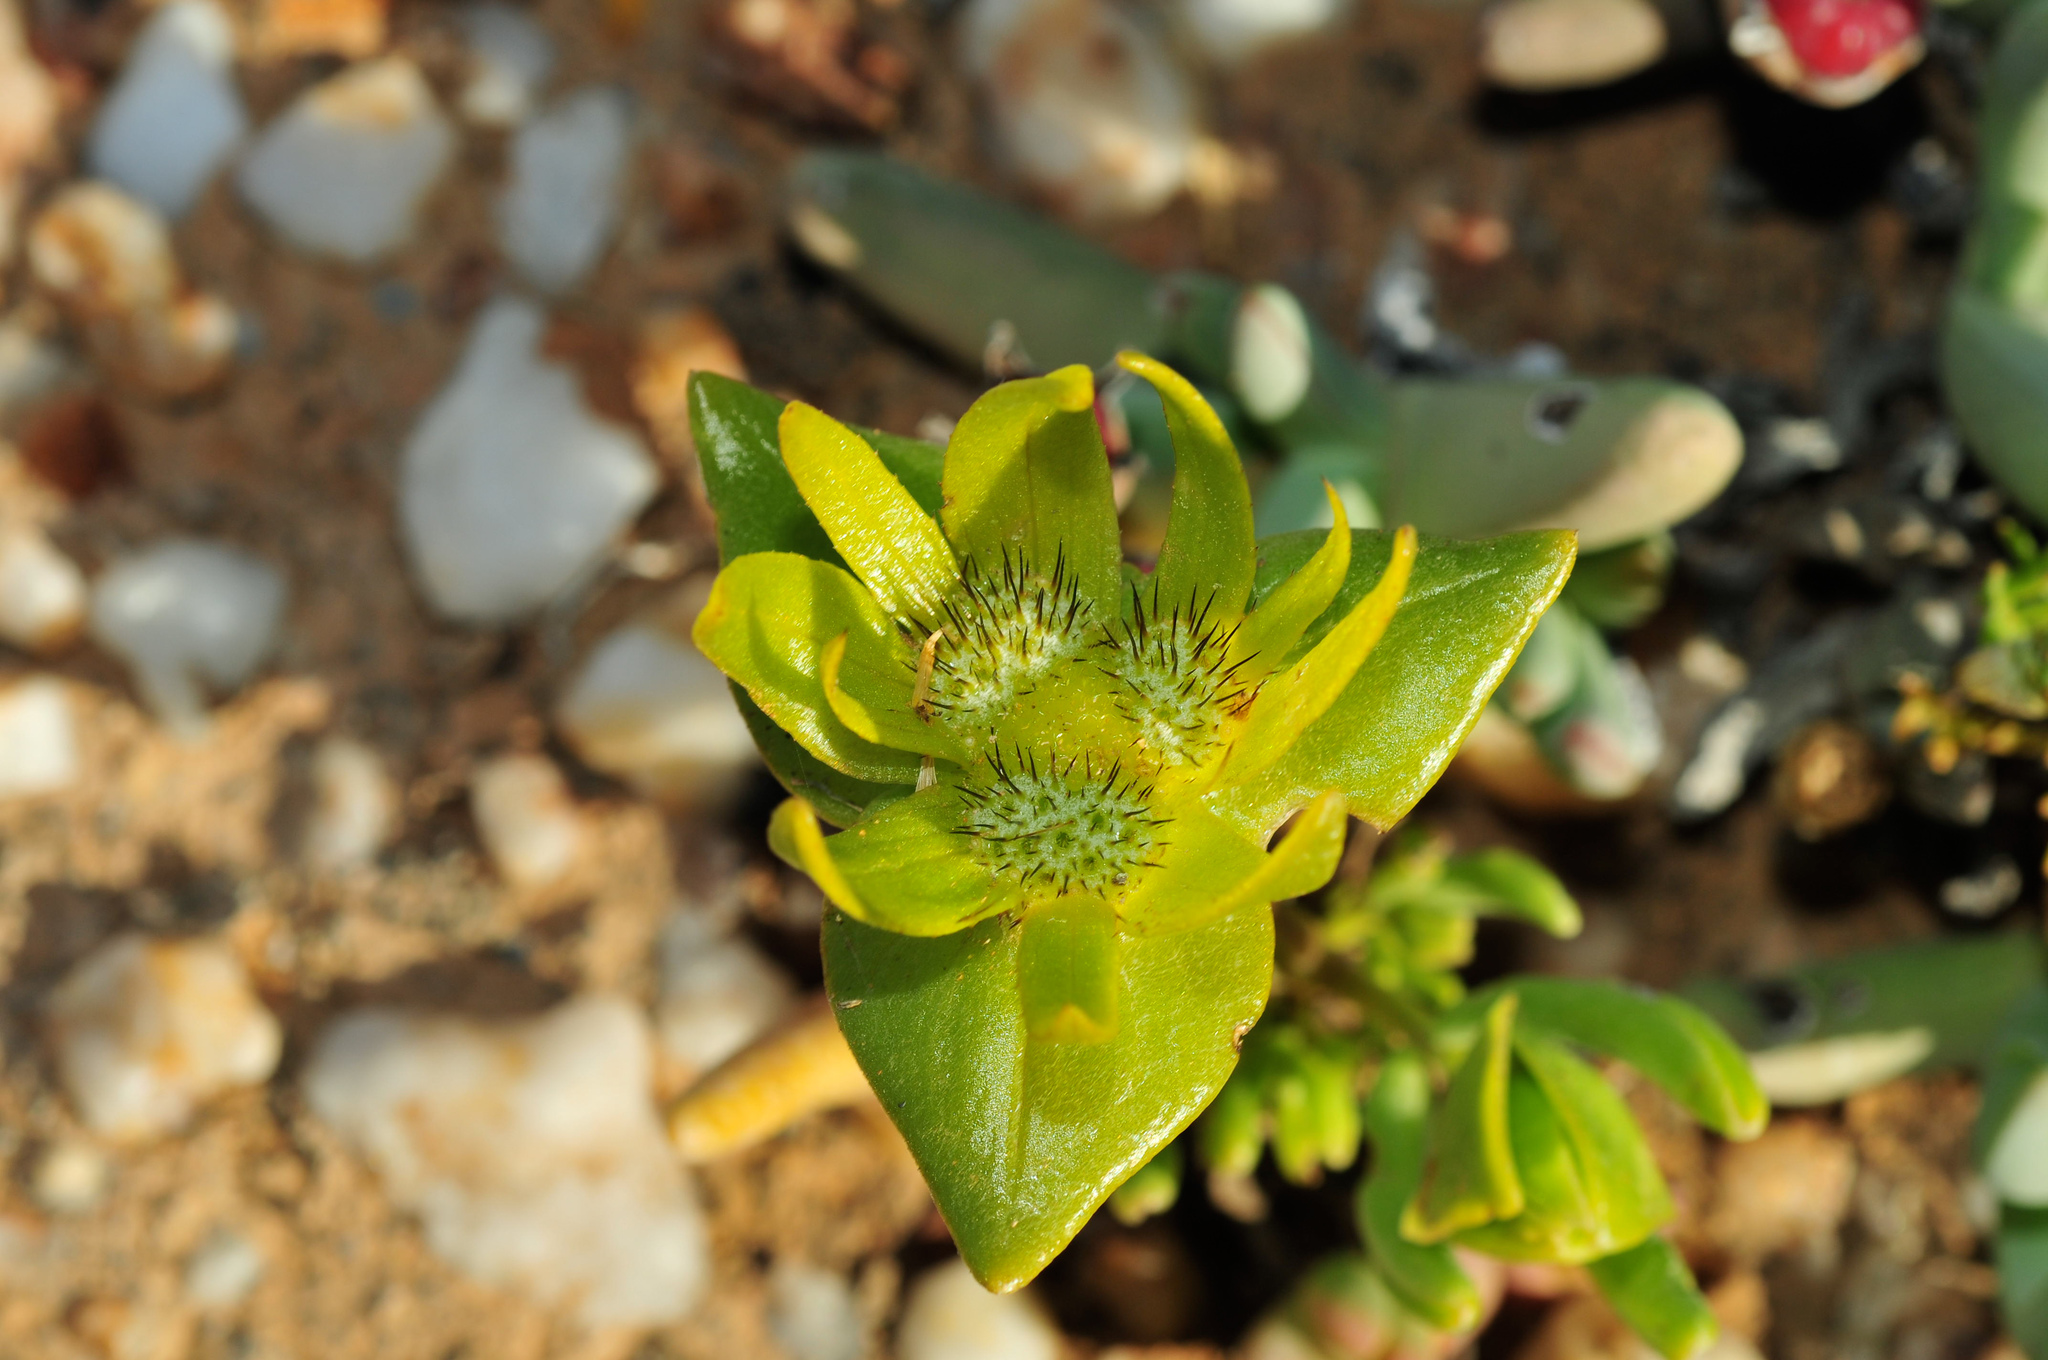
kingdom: Plantae
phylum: Tracheophyta
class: Magnoliopsida
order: Asterales
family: Asteraceae
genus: Didelta
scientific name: Didelta carnosa
